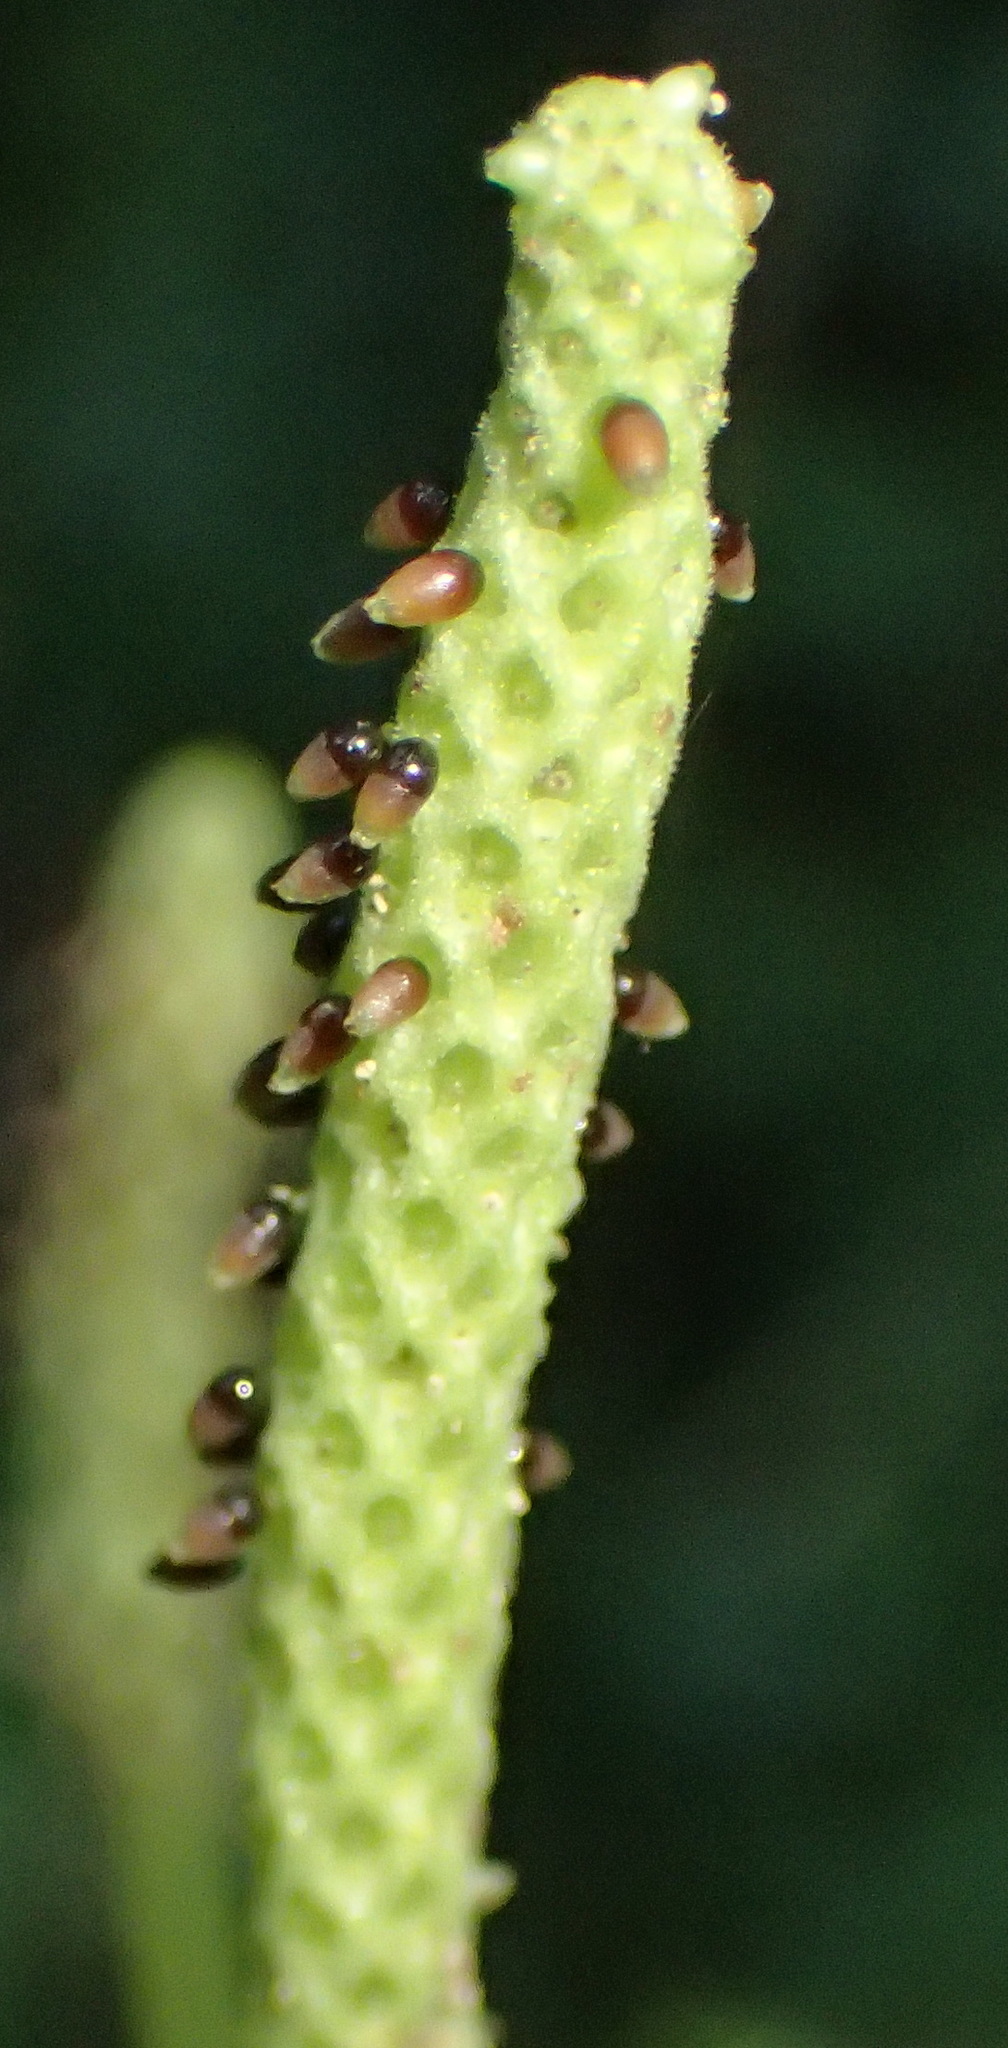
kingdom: Plantae
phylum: Tracheophyta
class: Magnoliopsida
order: Piperales
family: Piperaceae
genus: Peperomia
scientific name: Peperomia tetraphylla
